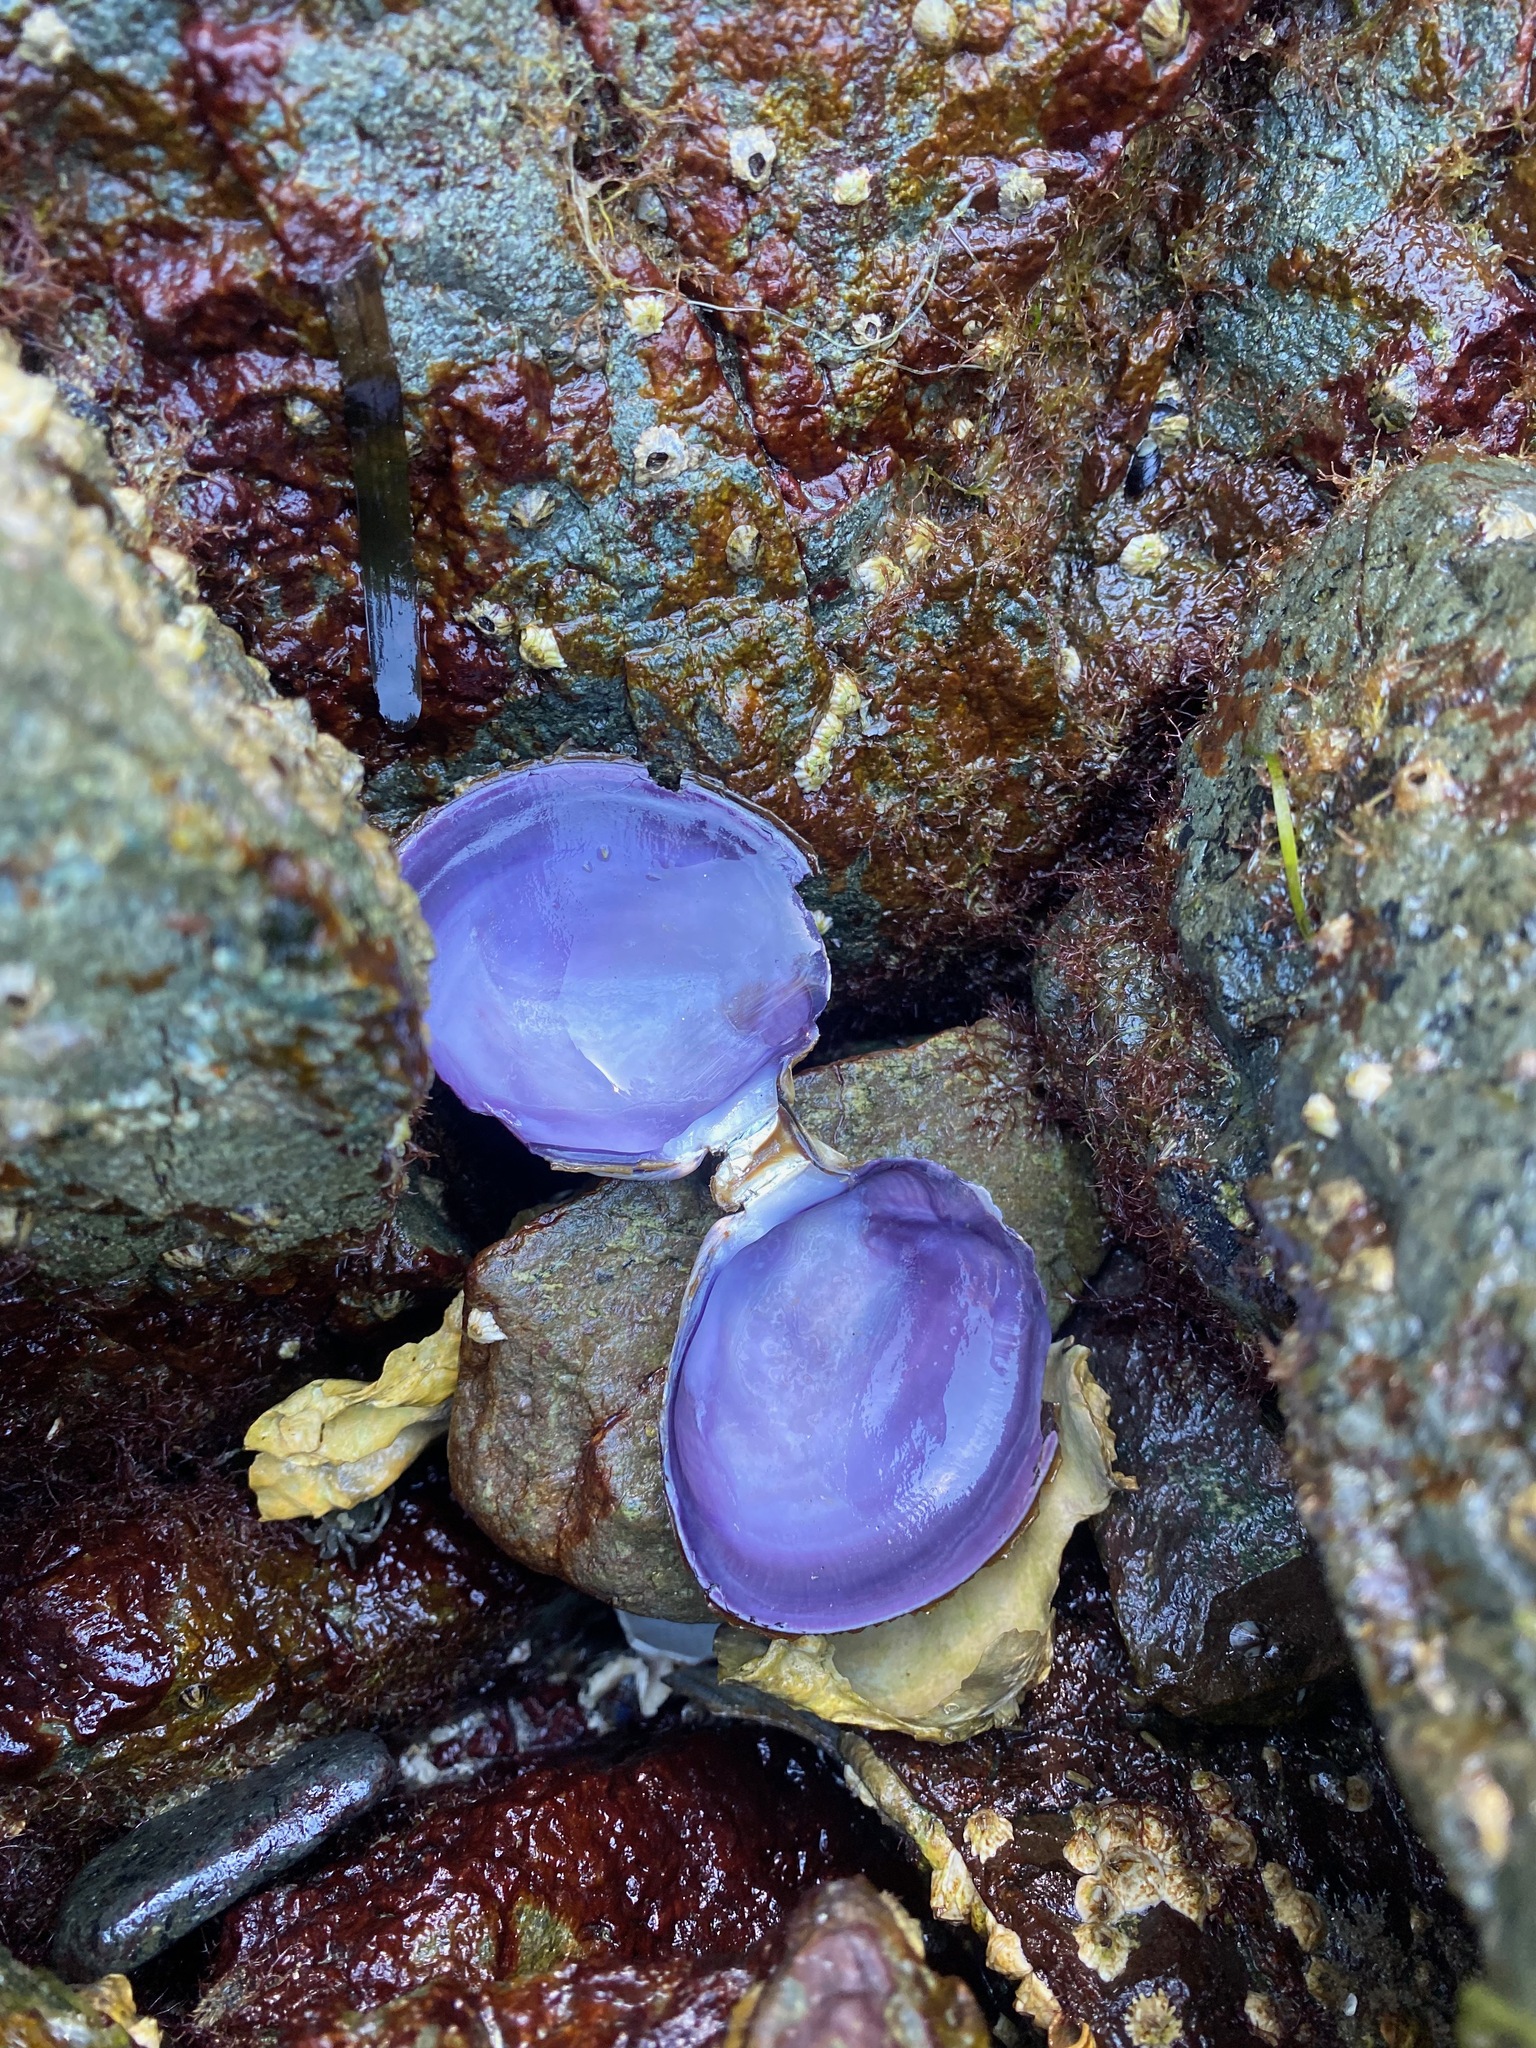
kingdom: Animalia
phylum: Mollusca
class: Bivalvia
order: Cardiida
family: Psammobiidae
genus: Nuttallia
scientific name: Nuttallia obscurata
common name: Purple mahogany-clam
